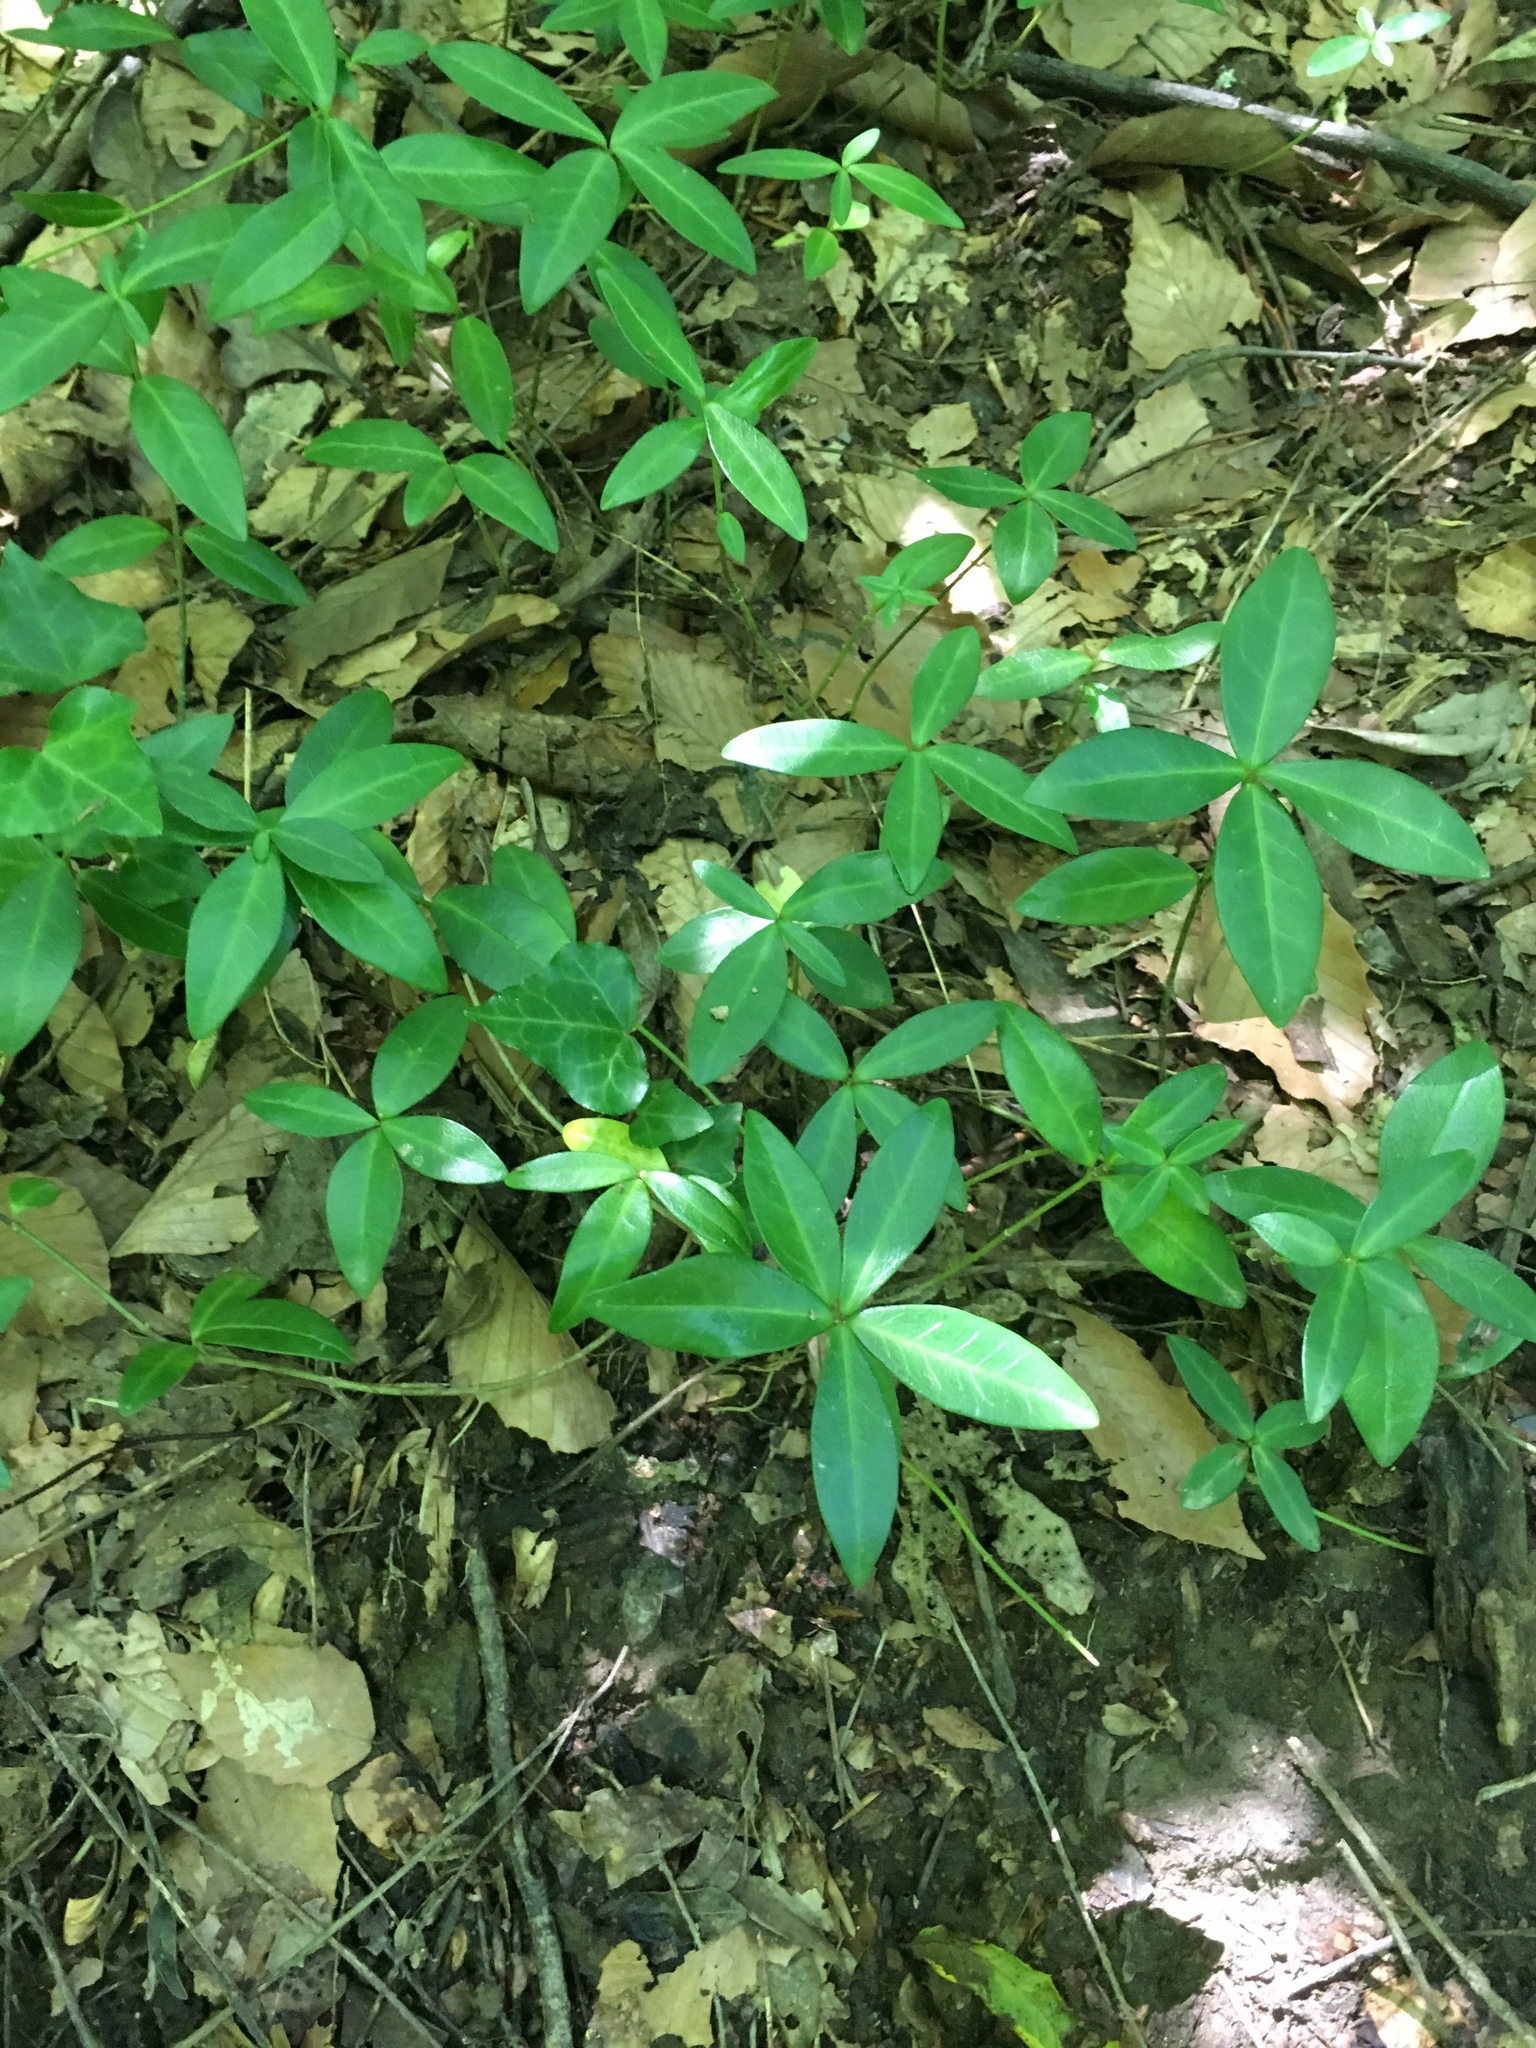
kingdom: Plantae
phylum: Tracheophyta
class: Magnoliopsida
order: Gentianales
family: Apocynaceae
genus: Vinca
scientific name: Vinca minor
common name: Lesser periwinkle
